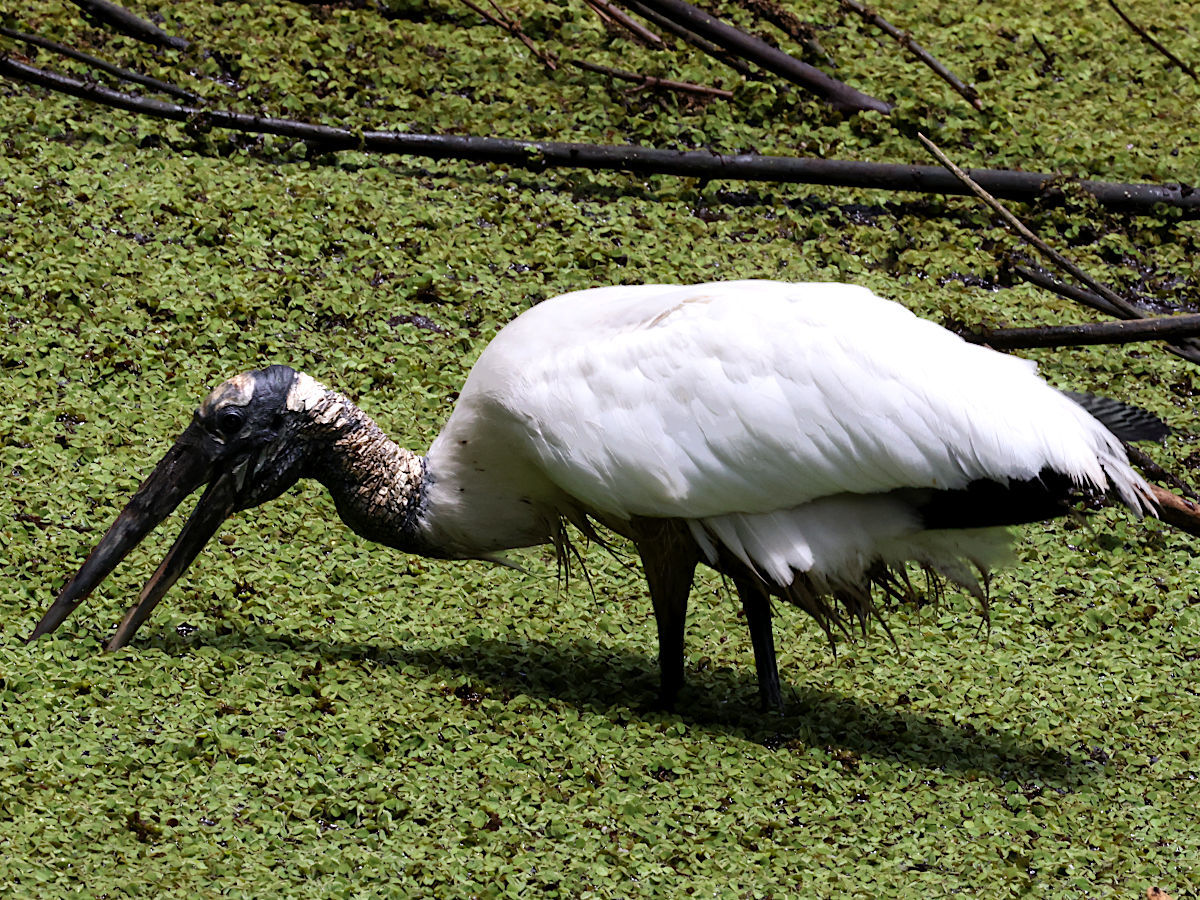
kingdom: Animalia
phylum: Chordata
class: Aves
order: Ciconiiformes
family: Ciconiidae
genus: Mycteria
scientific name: Mycteria americana
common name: Wood stork
